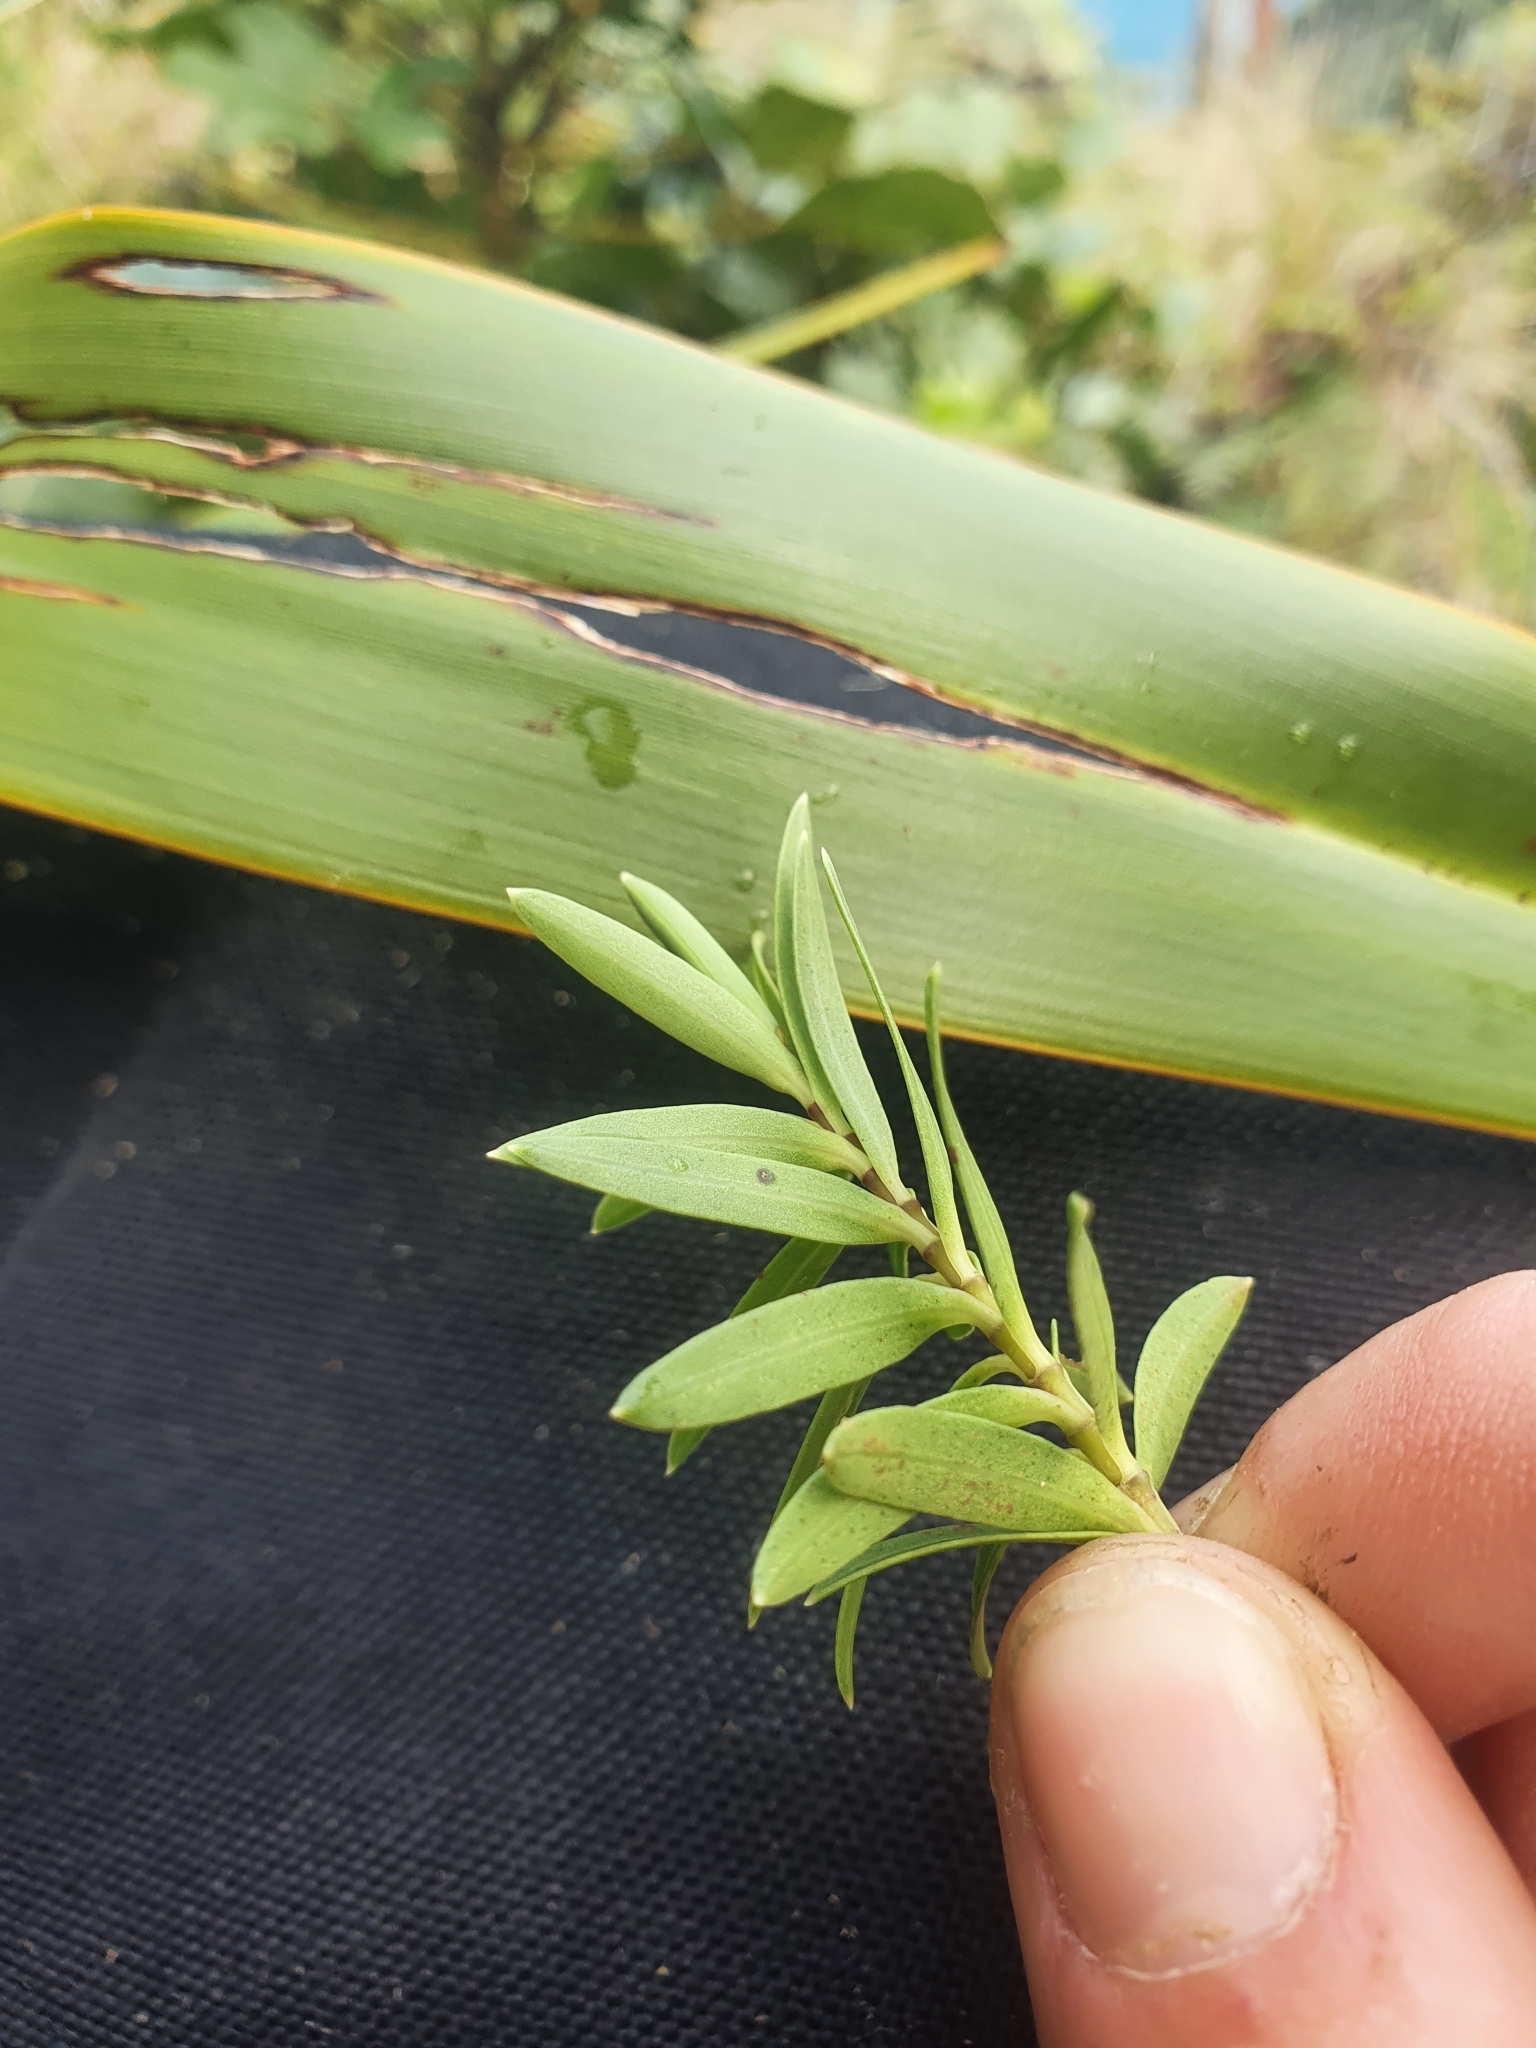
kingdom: Plantae
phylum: Tracheophyta
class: Magnoliopsida
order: Lamiales
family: Plantaginaceae
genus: Veronica
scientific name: Veronica parviflora
